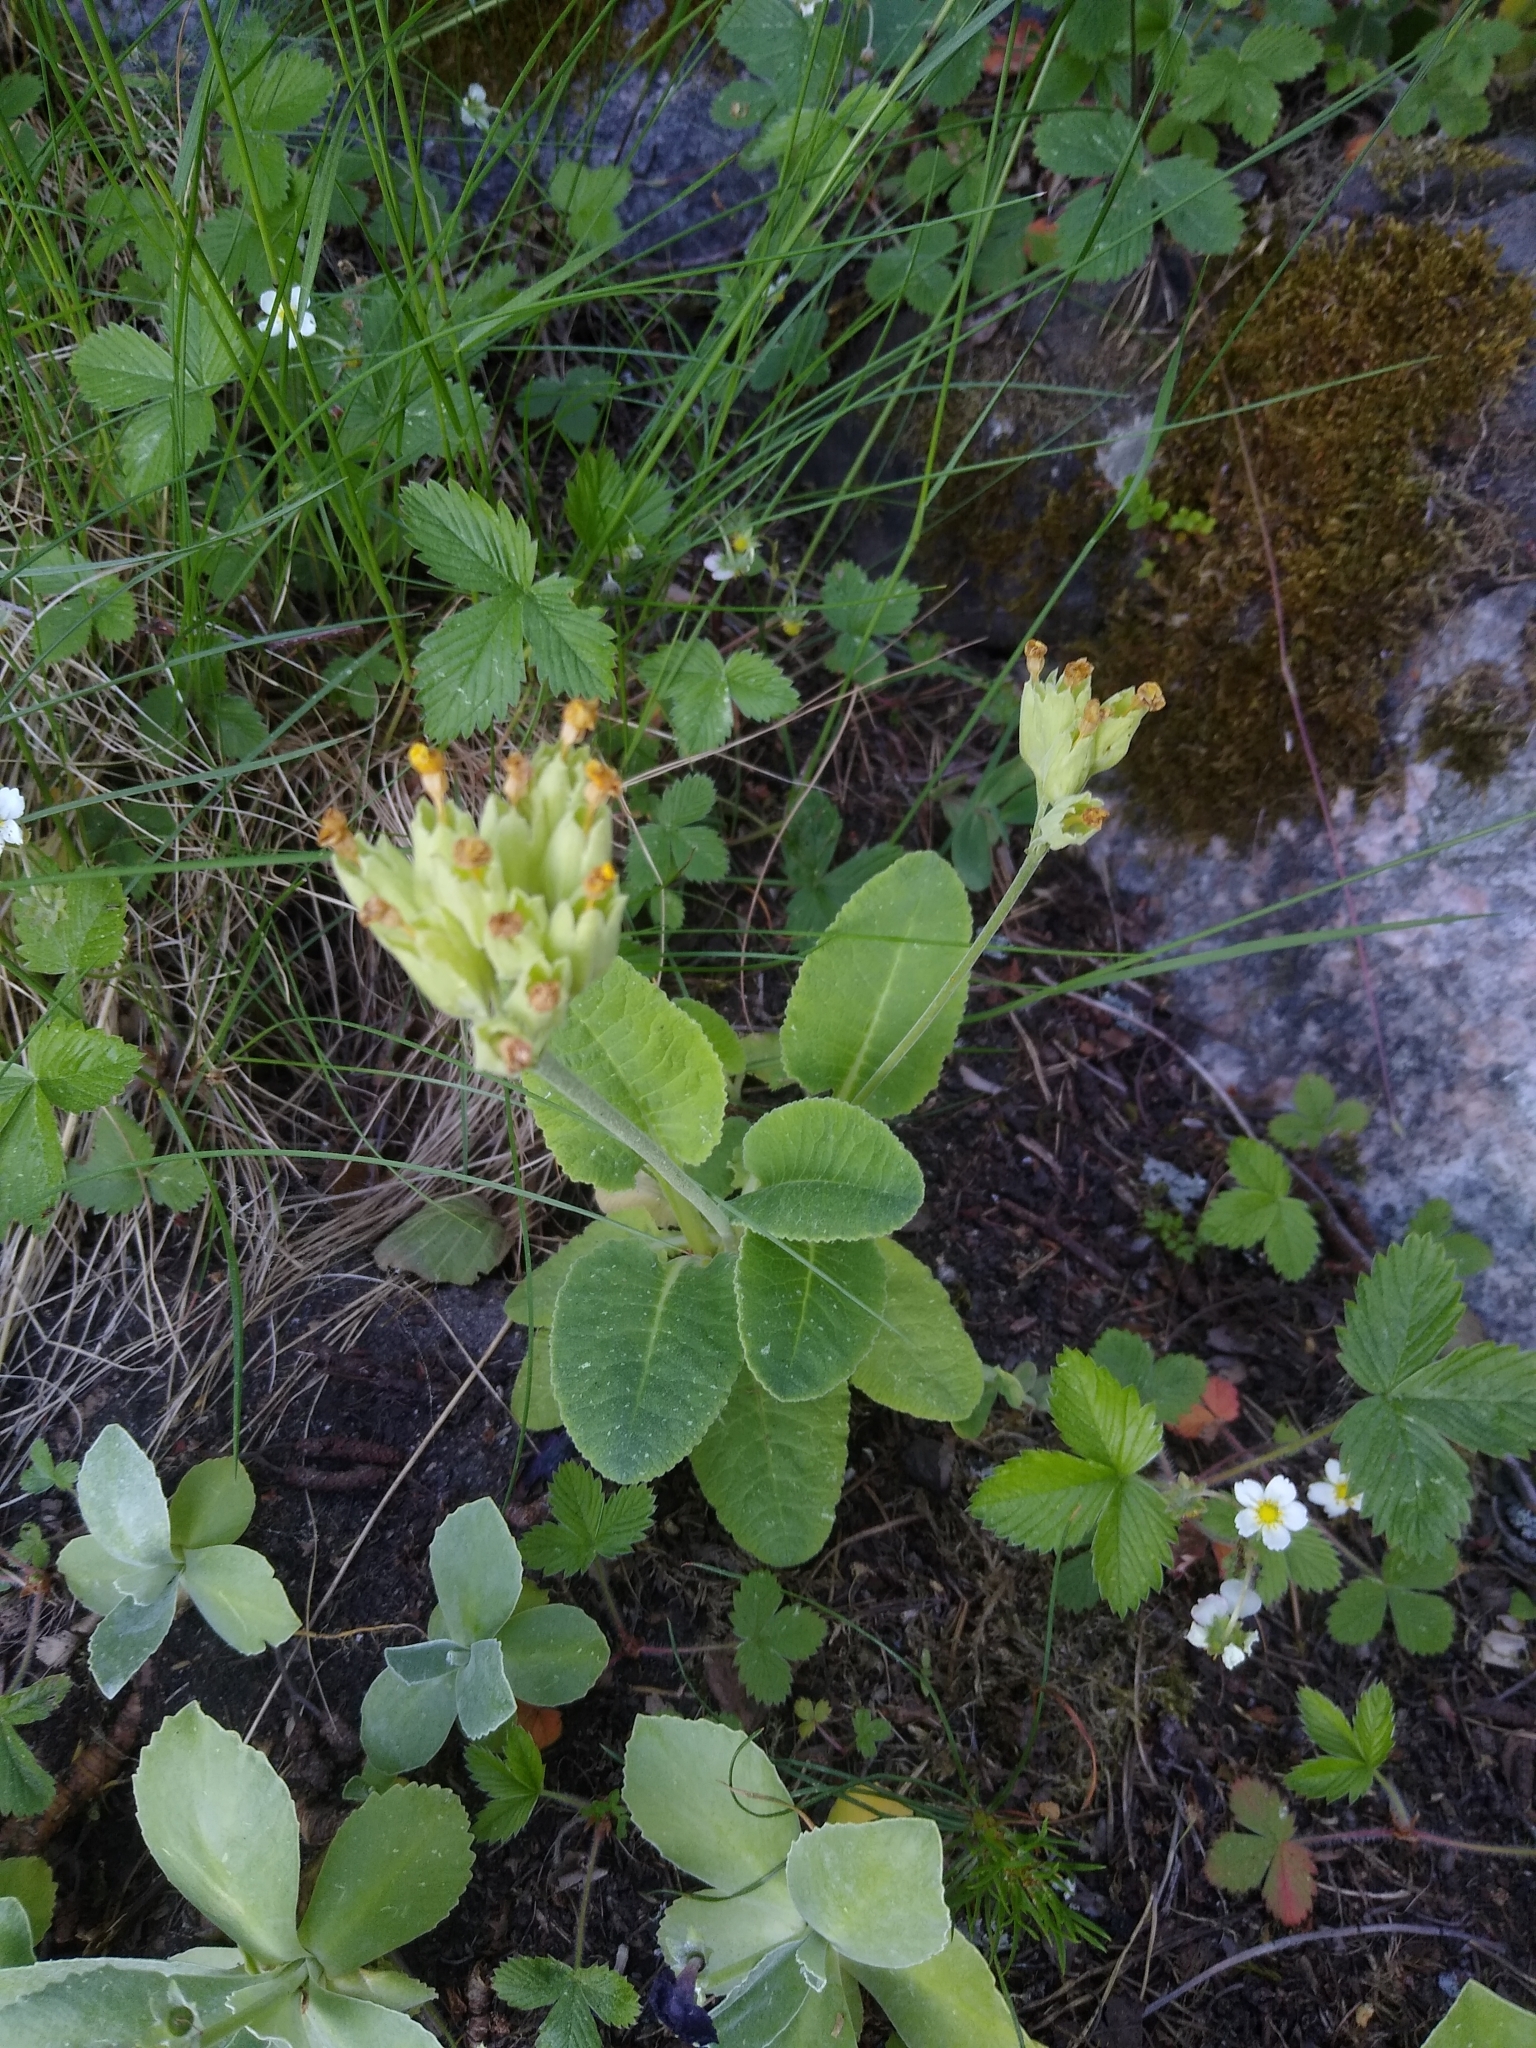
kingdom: Plantae
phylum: Tracheophyta
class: Magnoliopsida
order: Ericales
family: Primulaceae
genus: Primula
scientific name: Primula veris
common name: Cowslip
